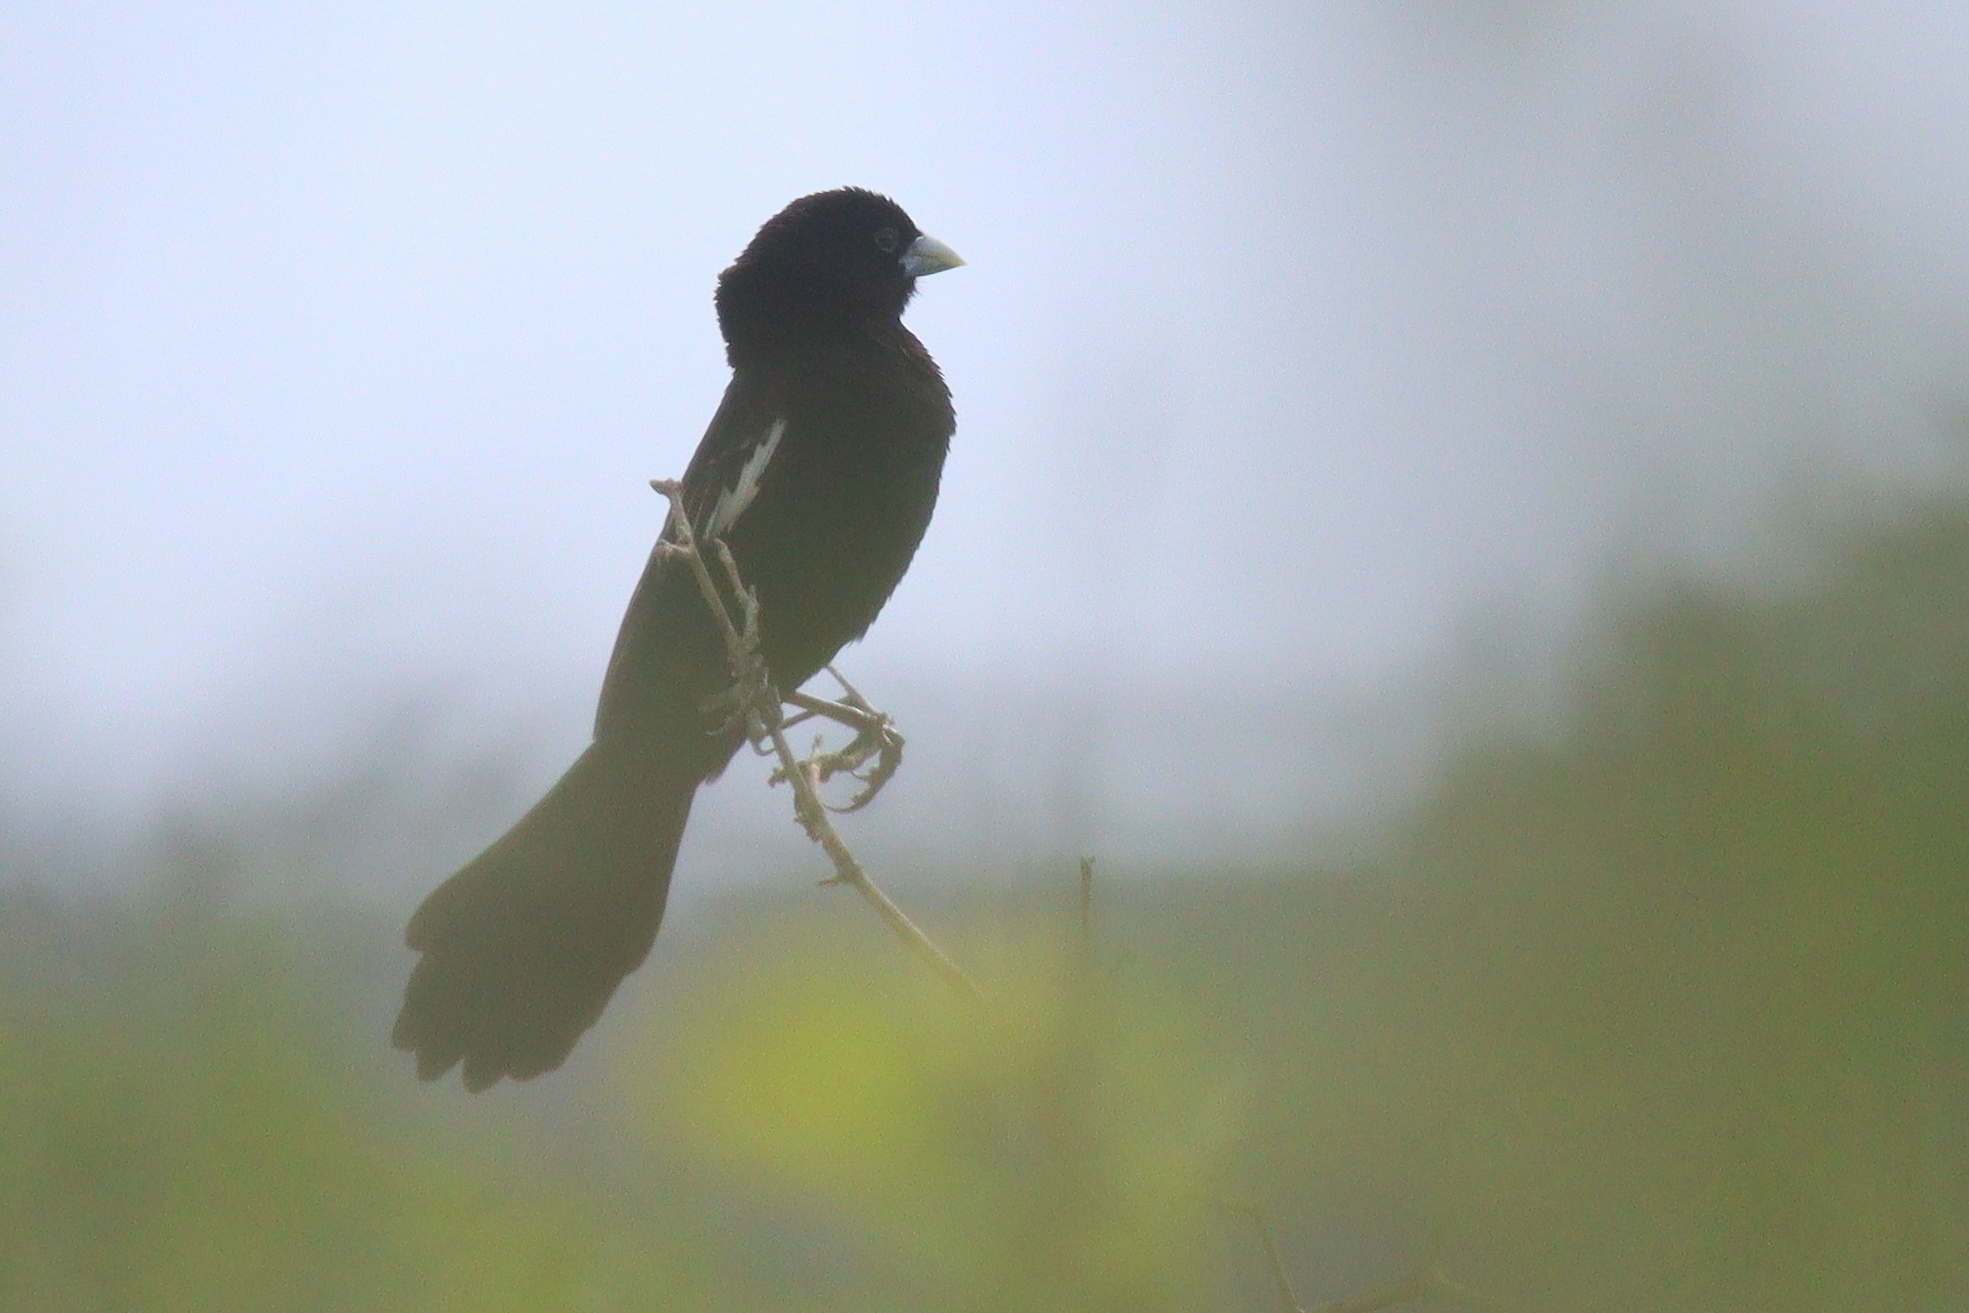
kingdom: Animalia
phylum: Chordata
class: Aves
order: Passeriformes
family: Ploceidae
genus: Euplectes
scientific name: Euplectes albonotatus
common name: White-winged widowbird
